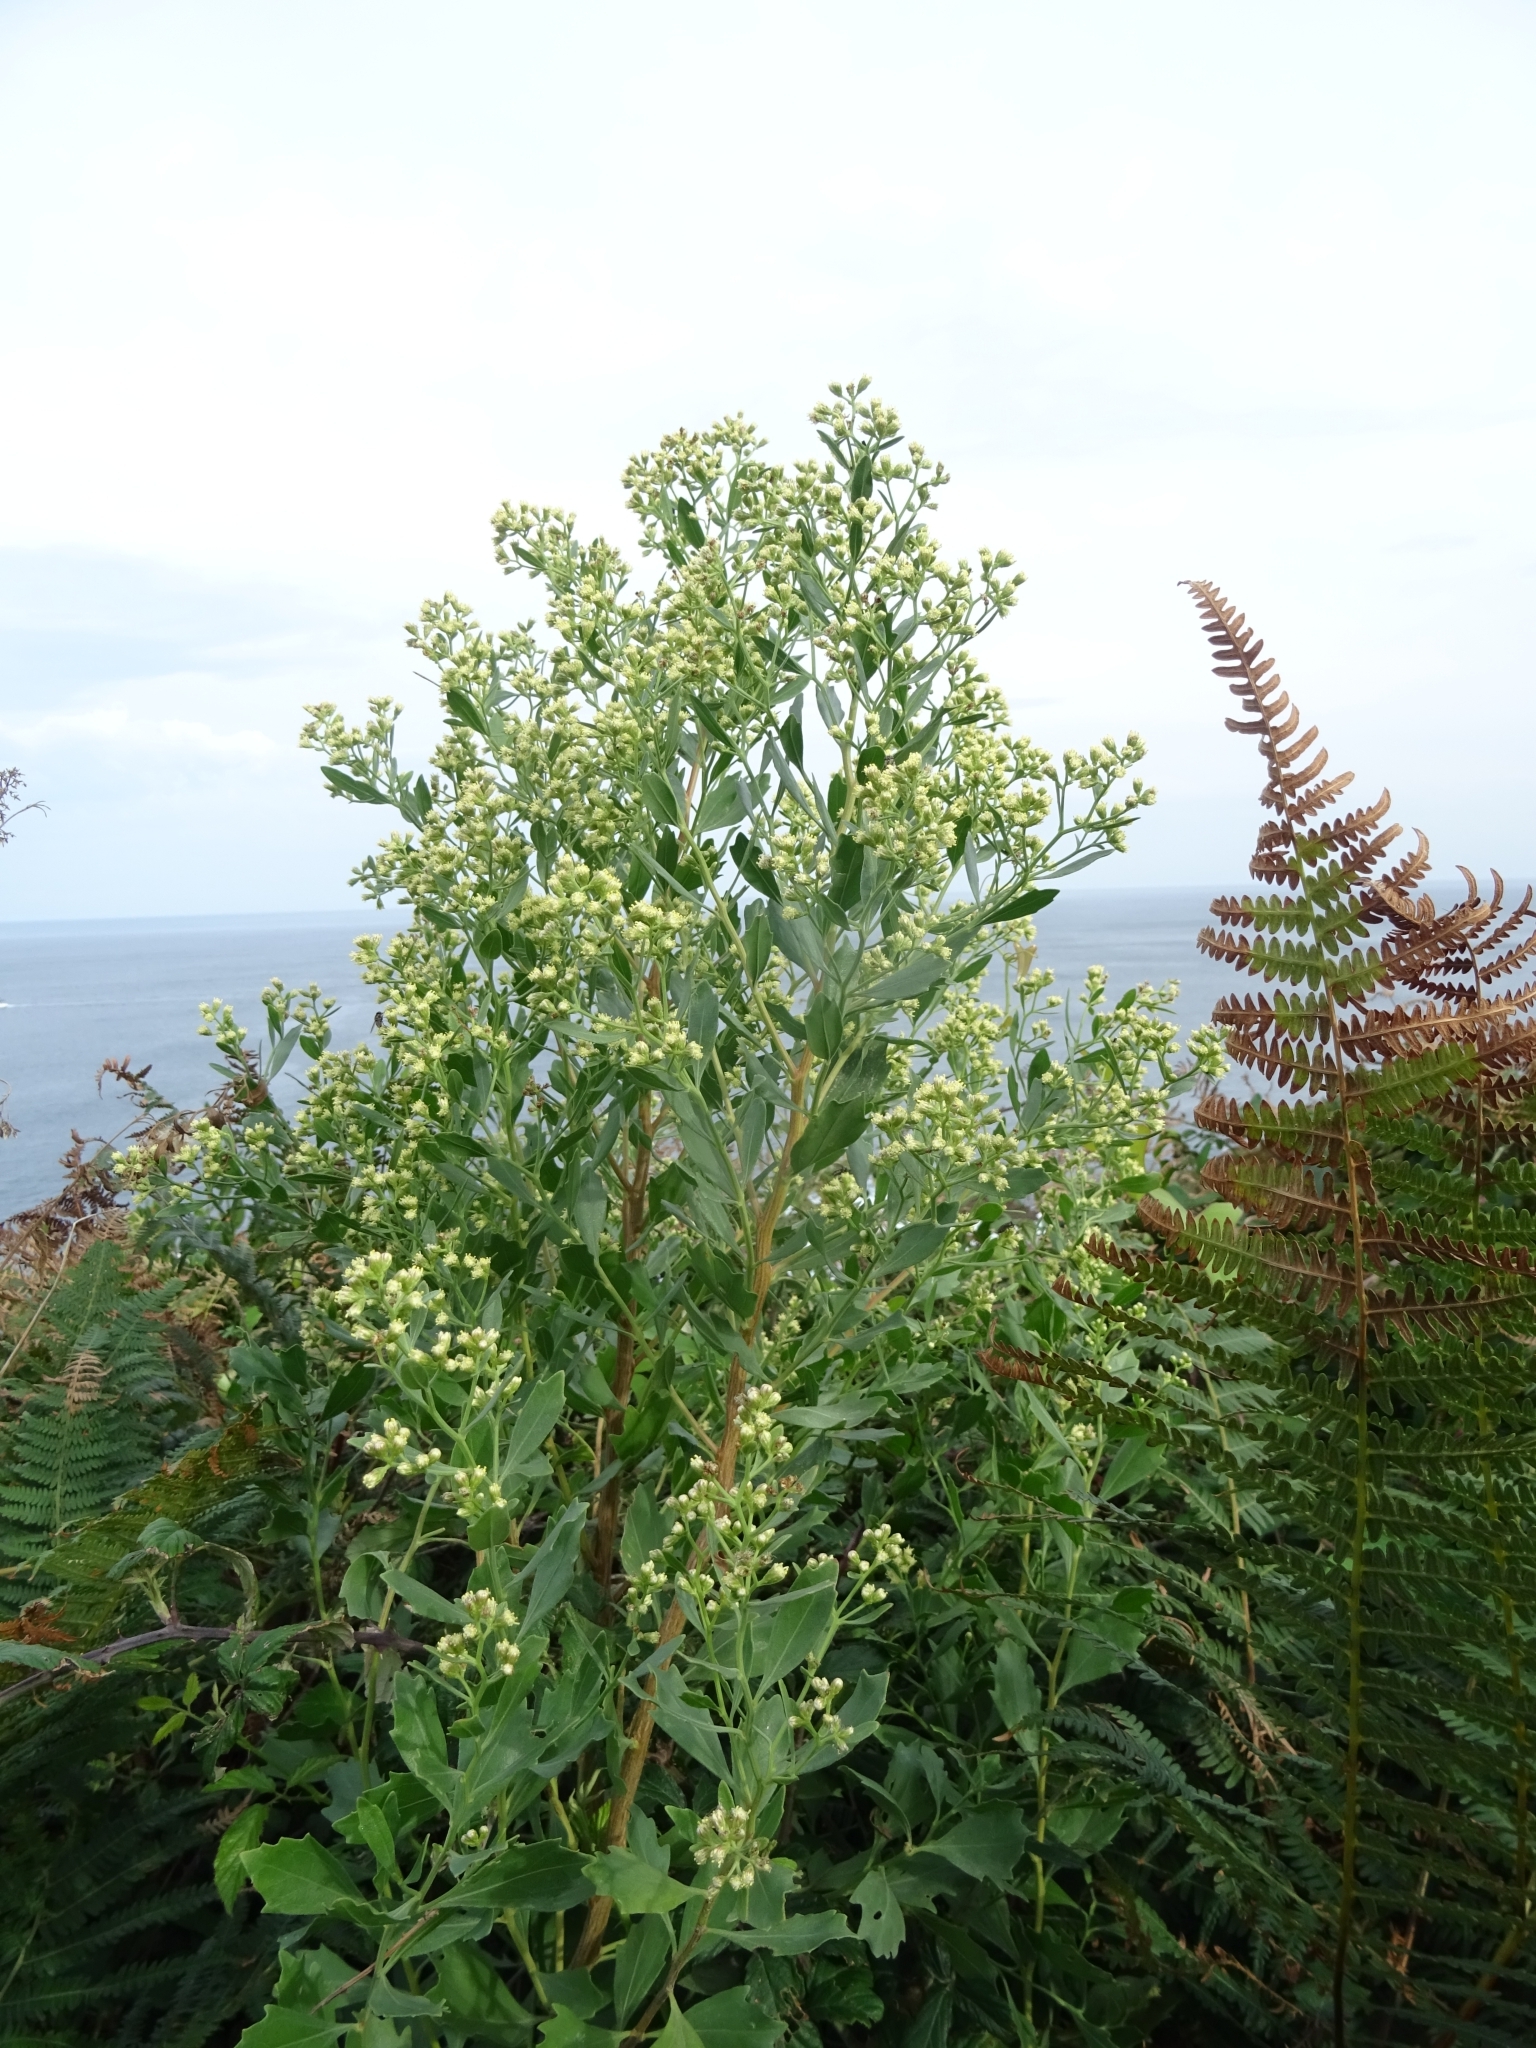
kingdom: Plantae
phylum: Tracheophyta
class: Magnoliopsida
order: Asterales
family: Asteraceae
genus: Baccharis
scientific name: Baccharis halimifolia
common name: Eastern baccharis
